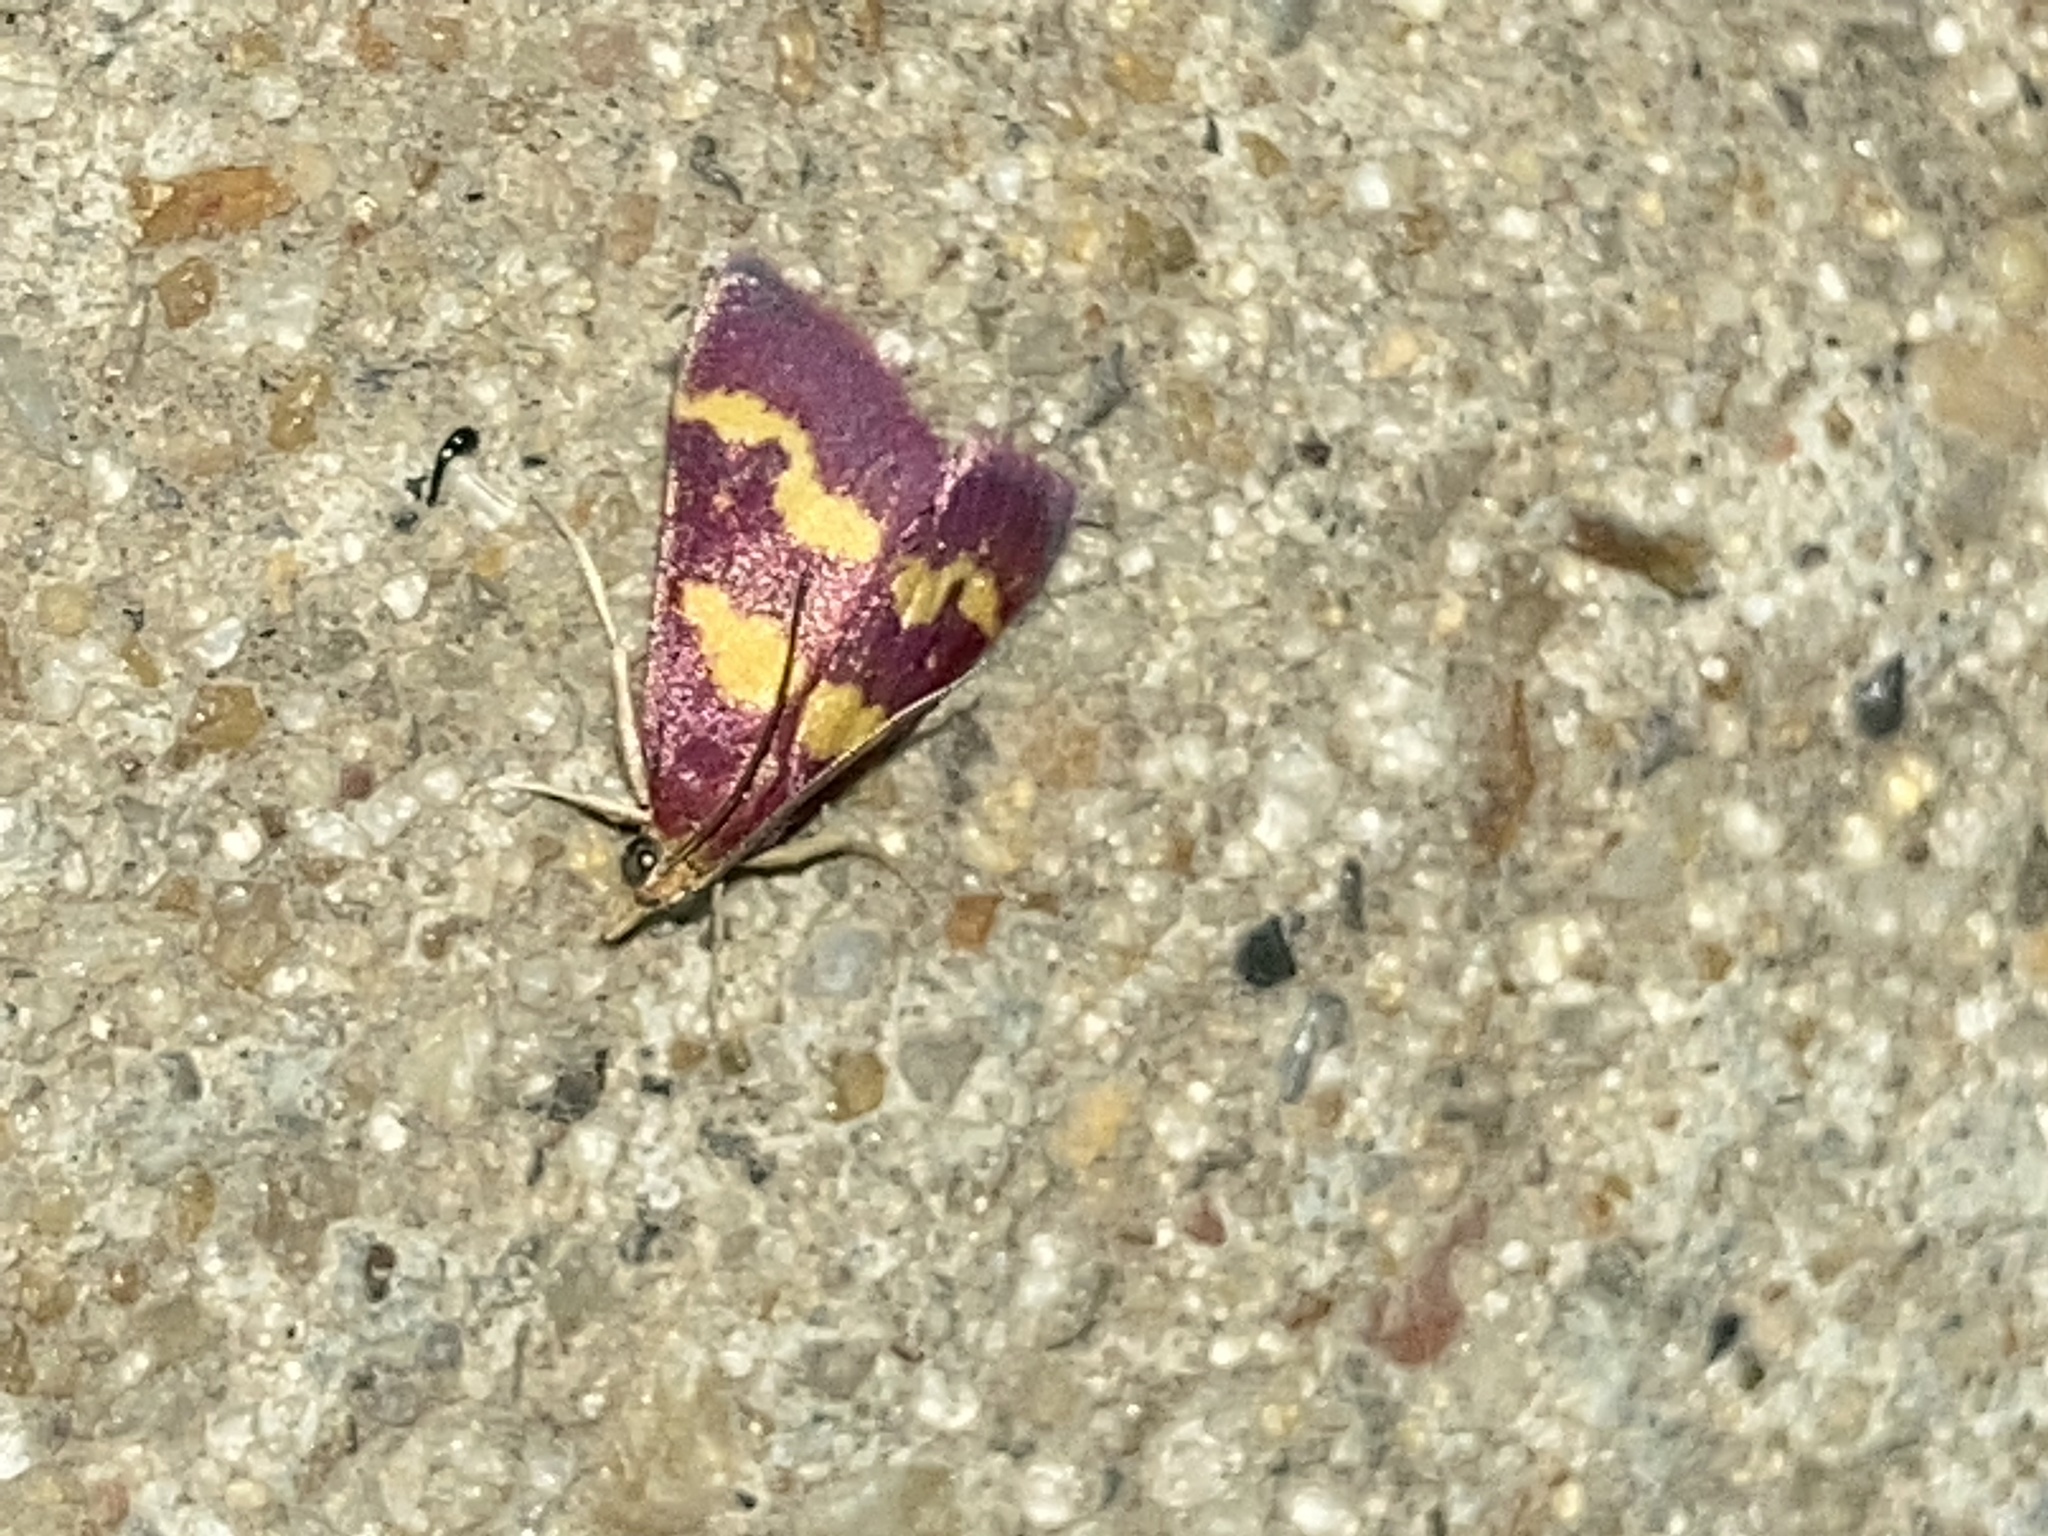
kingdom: Animalia
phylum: Arthropoda
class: Insecta
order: Lepidoptera
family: Crambidae
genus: Pyrausta
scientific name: Pyrausta tyralis
